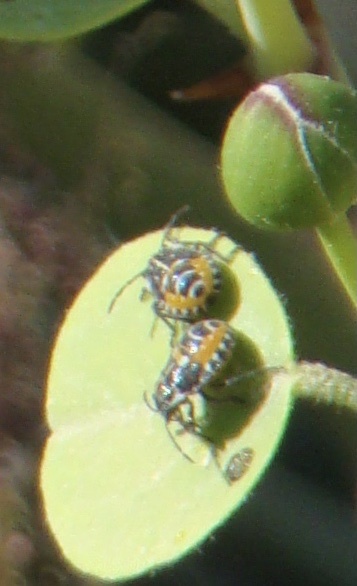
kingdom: Animalia
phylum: Arthropoda
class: Insecta
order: Hemiptera
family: Pentatomidae
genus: Stenozygum
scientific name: Stenozygum coloratum
